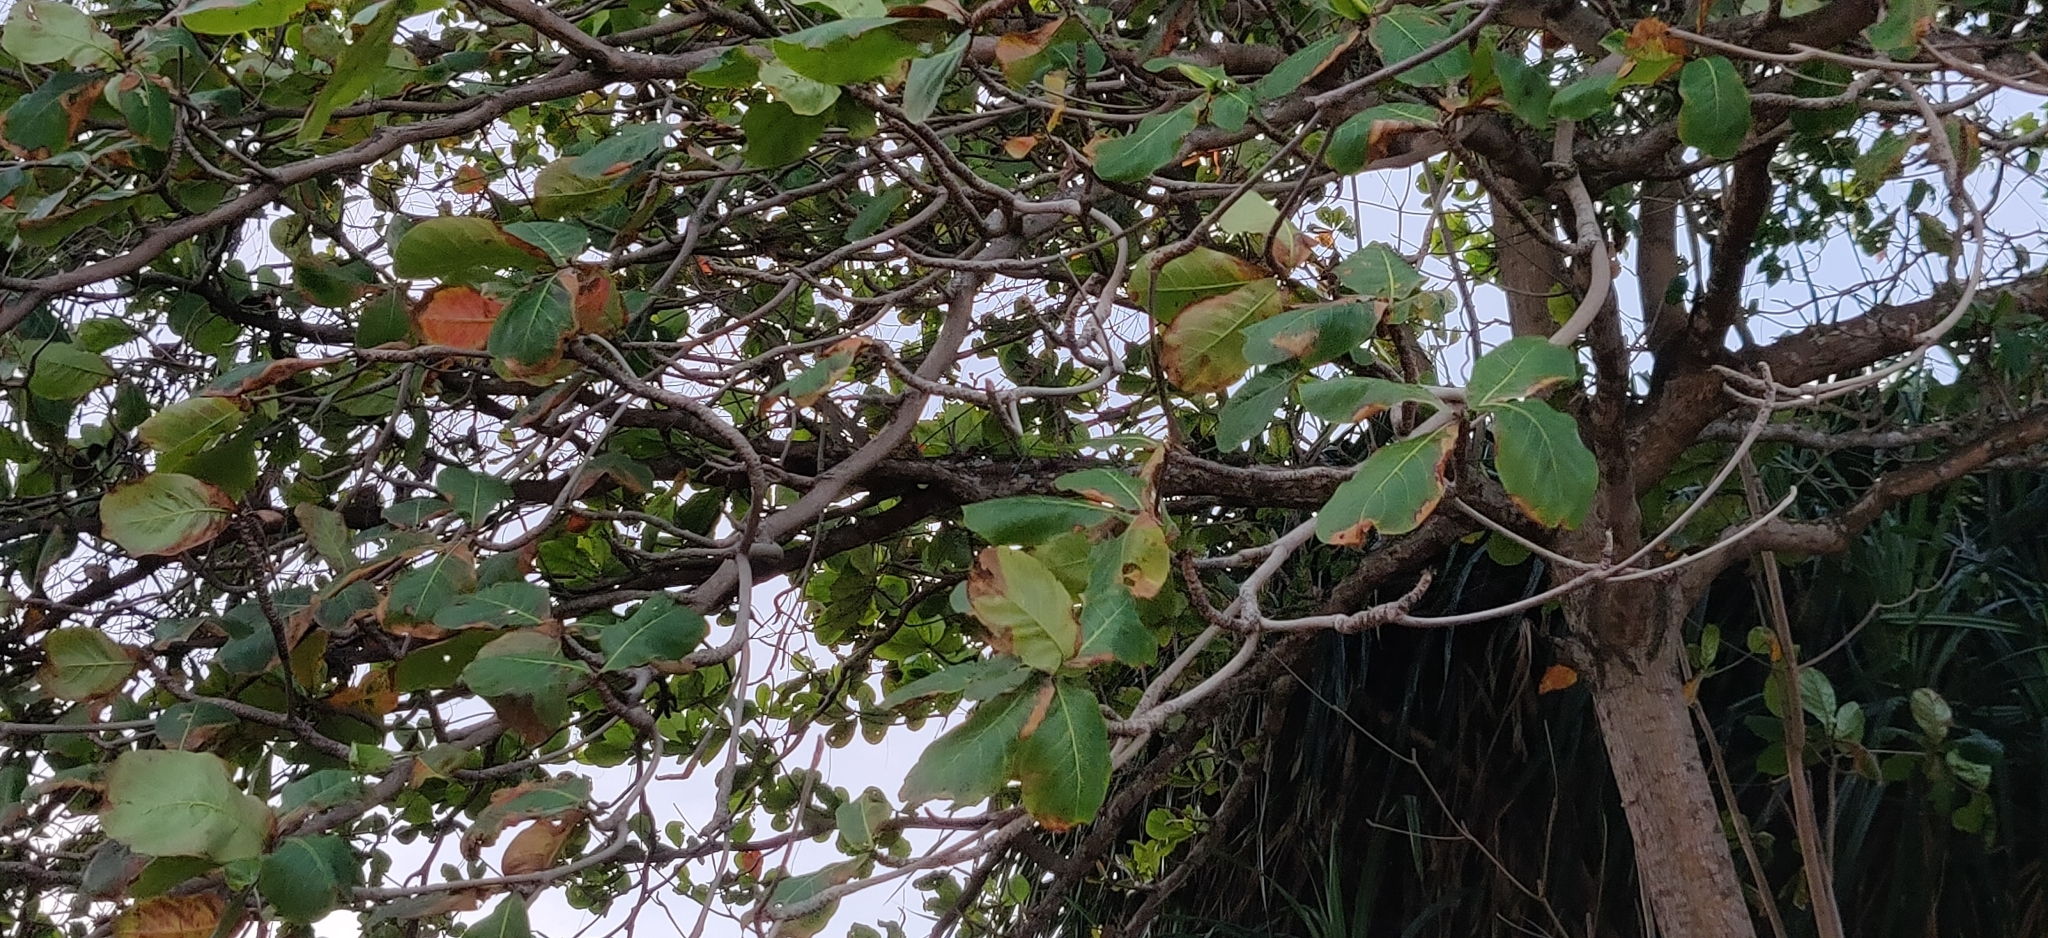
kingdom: Plantae
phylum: Tracheophyta
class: Magnoliopsida
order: Myrtales
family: Combretaceae
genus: Terminalia
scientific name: Terminalia catappa
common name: Tropical almond
